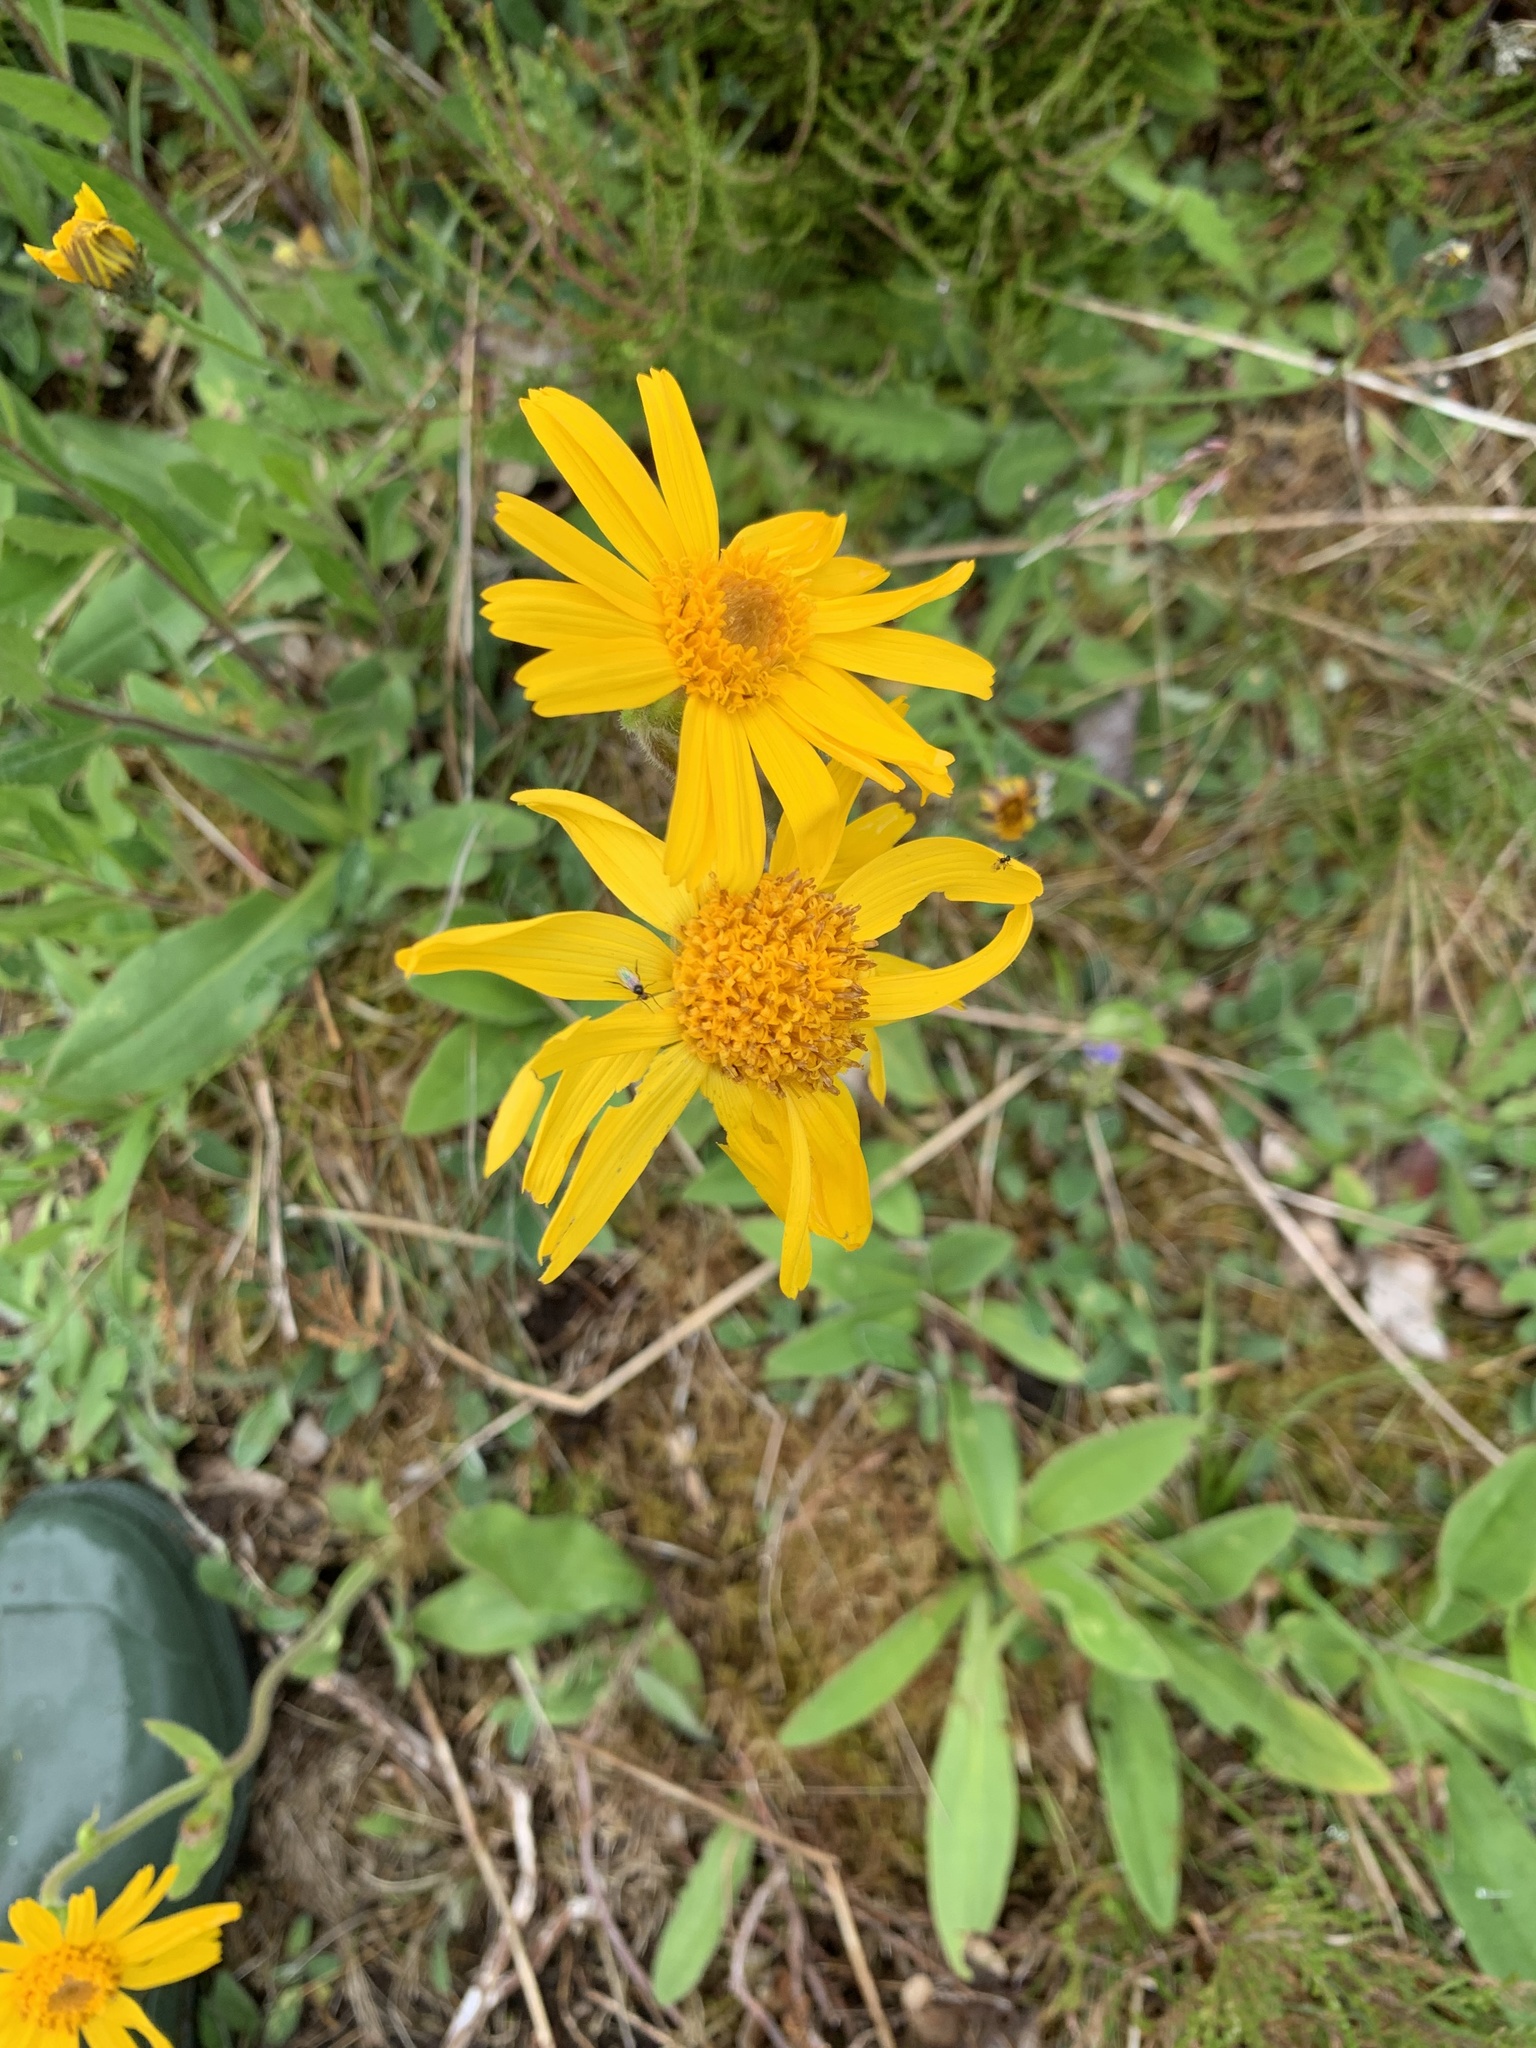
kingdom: Plantae
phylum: Tracheophyta
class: Magnoliopsida
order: Asterales
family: Asteraceae
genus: Arnica
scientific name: Arnica montana
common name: Leopard's bane
